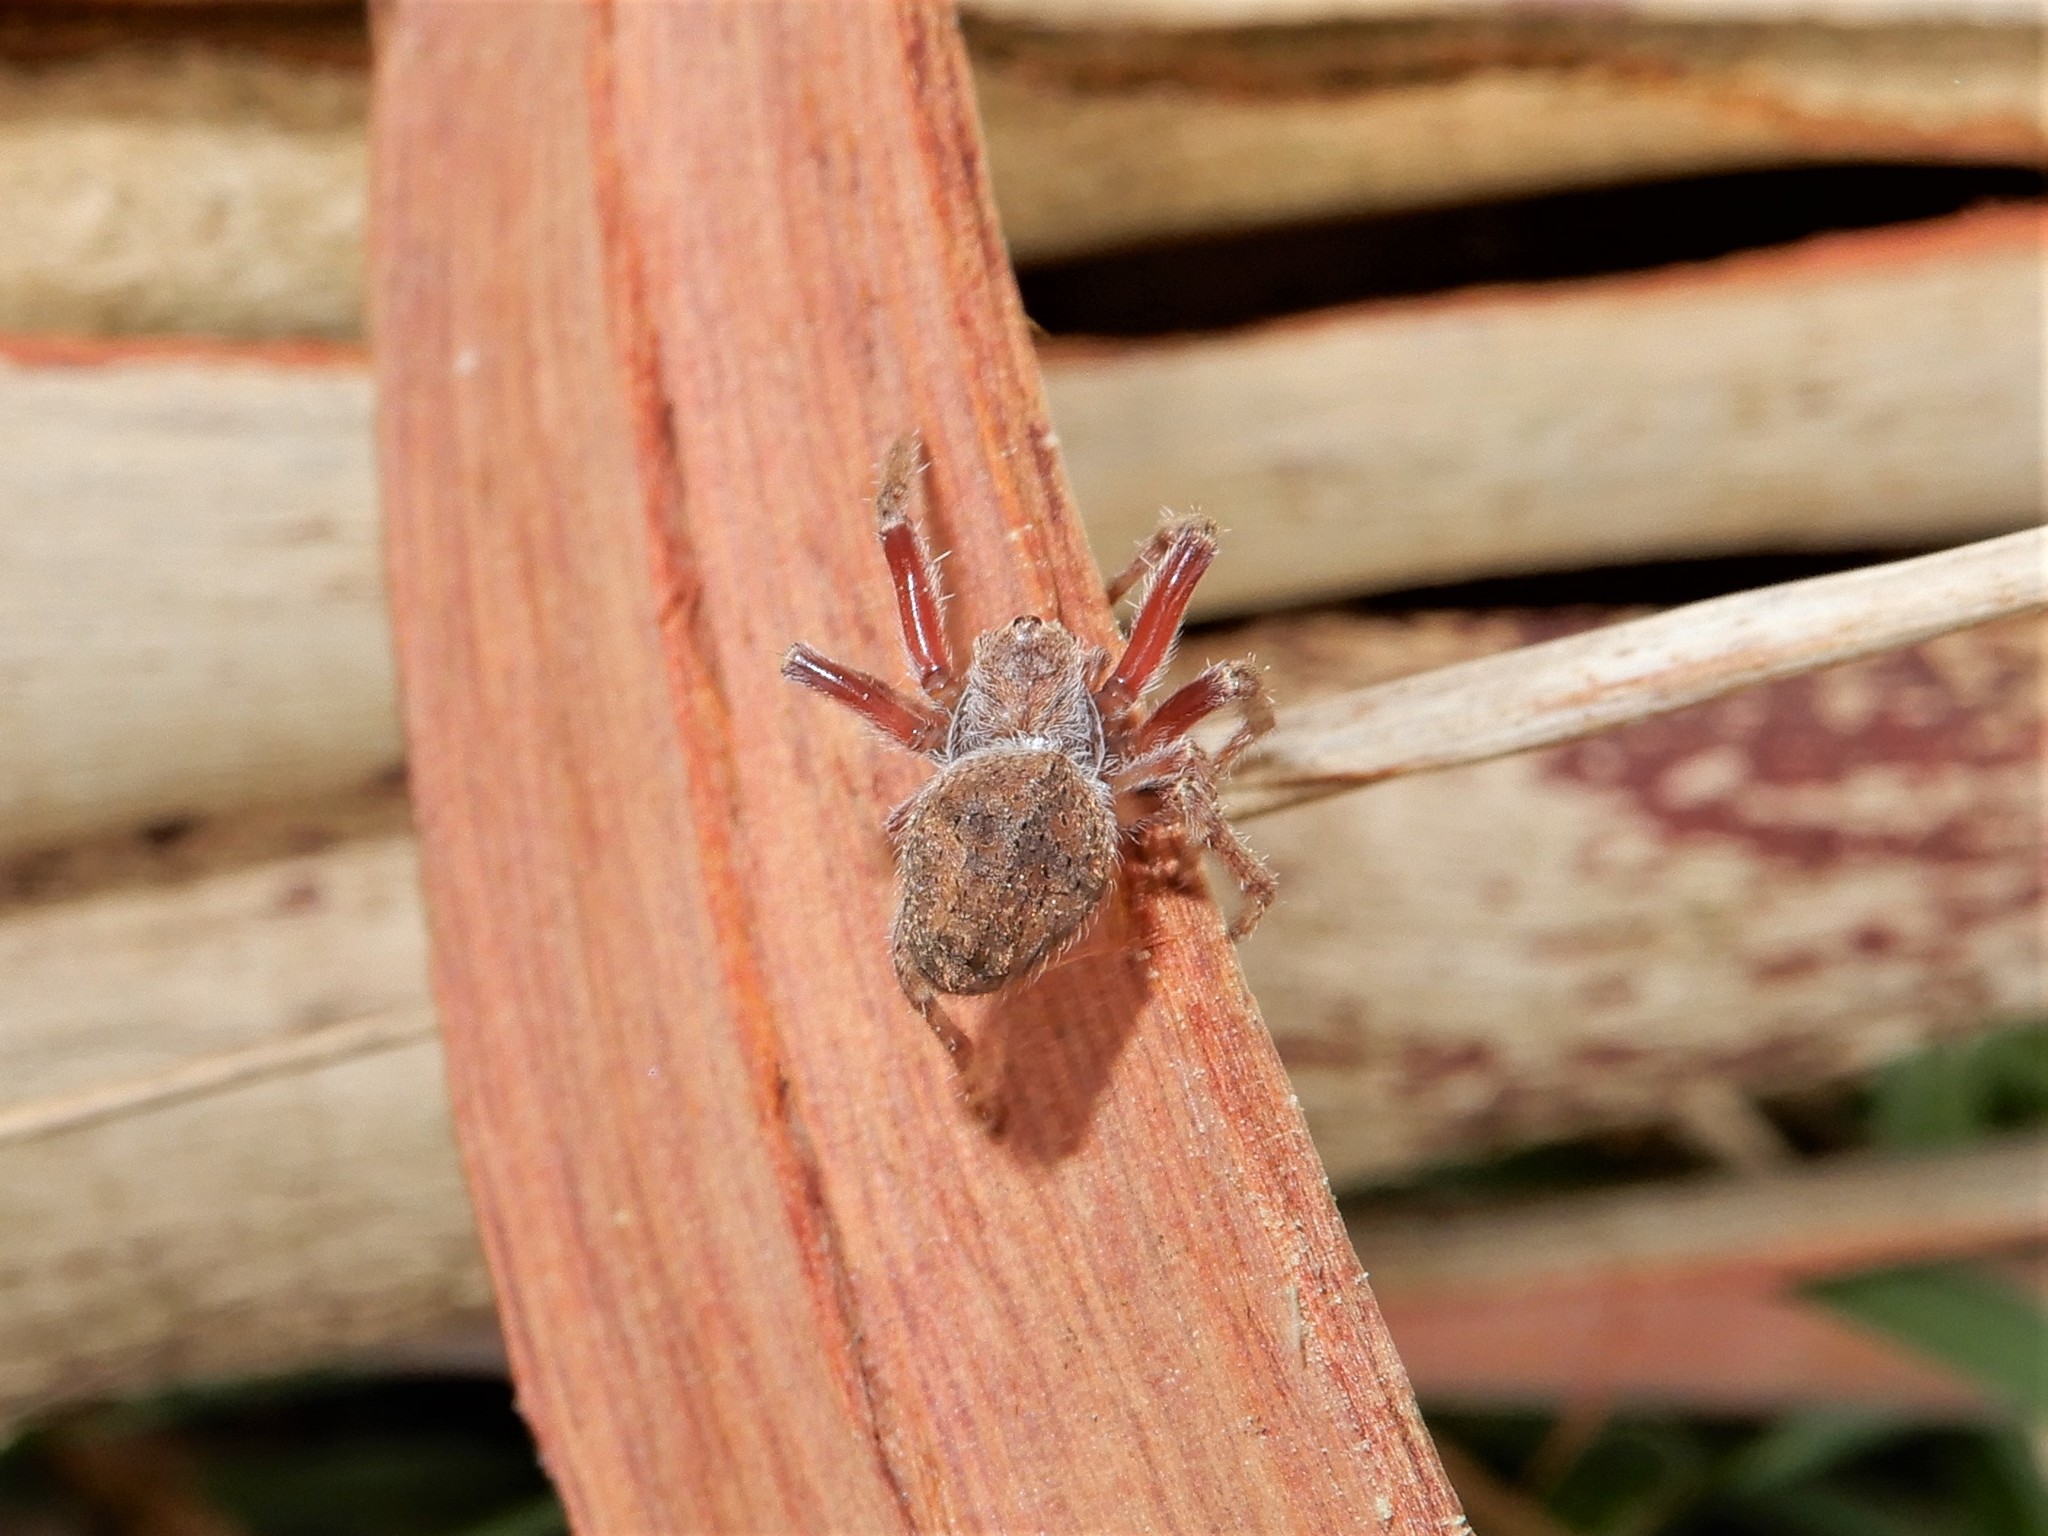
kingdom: Animalia
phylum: Arthropoda
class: Arachnida
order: Araneae
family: Araneidae
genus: Eriophora
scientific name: Eriophora pustulosa
